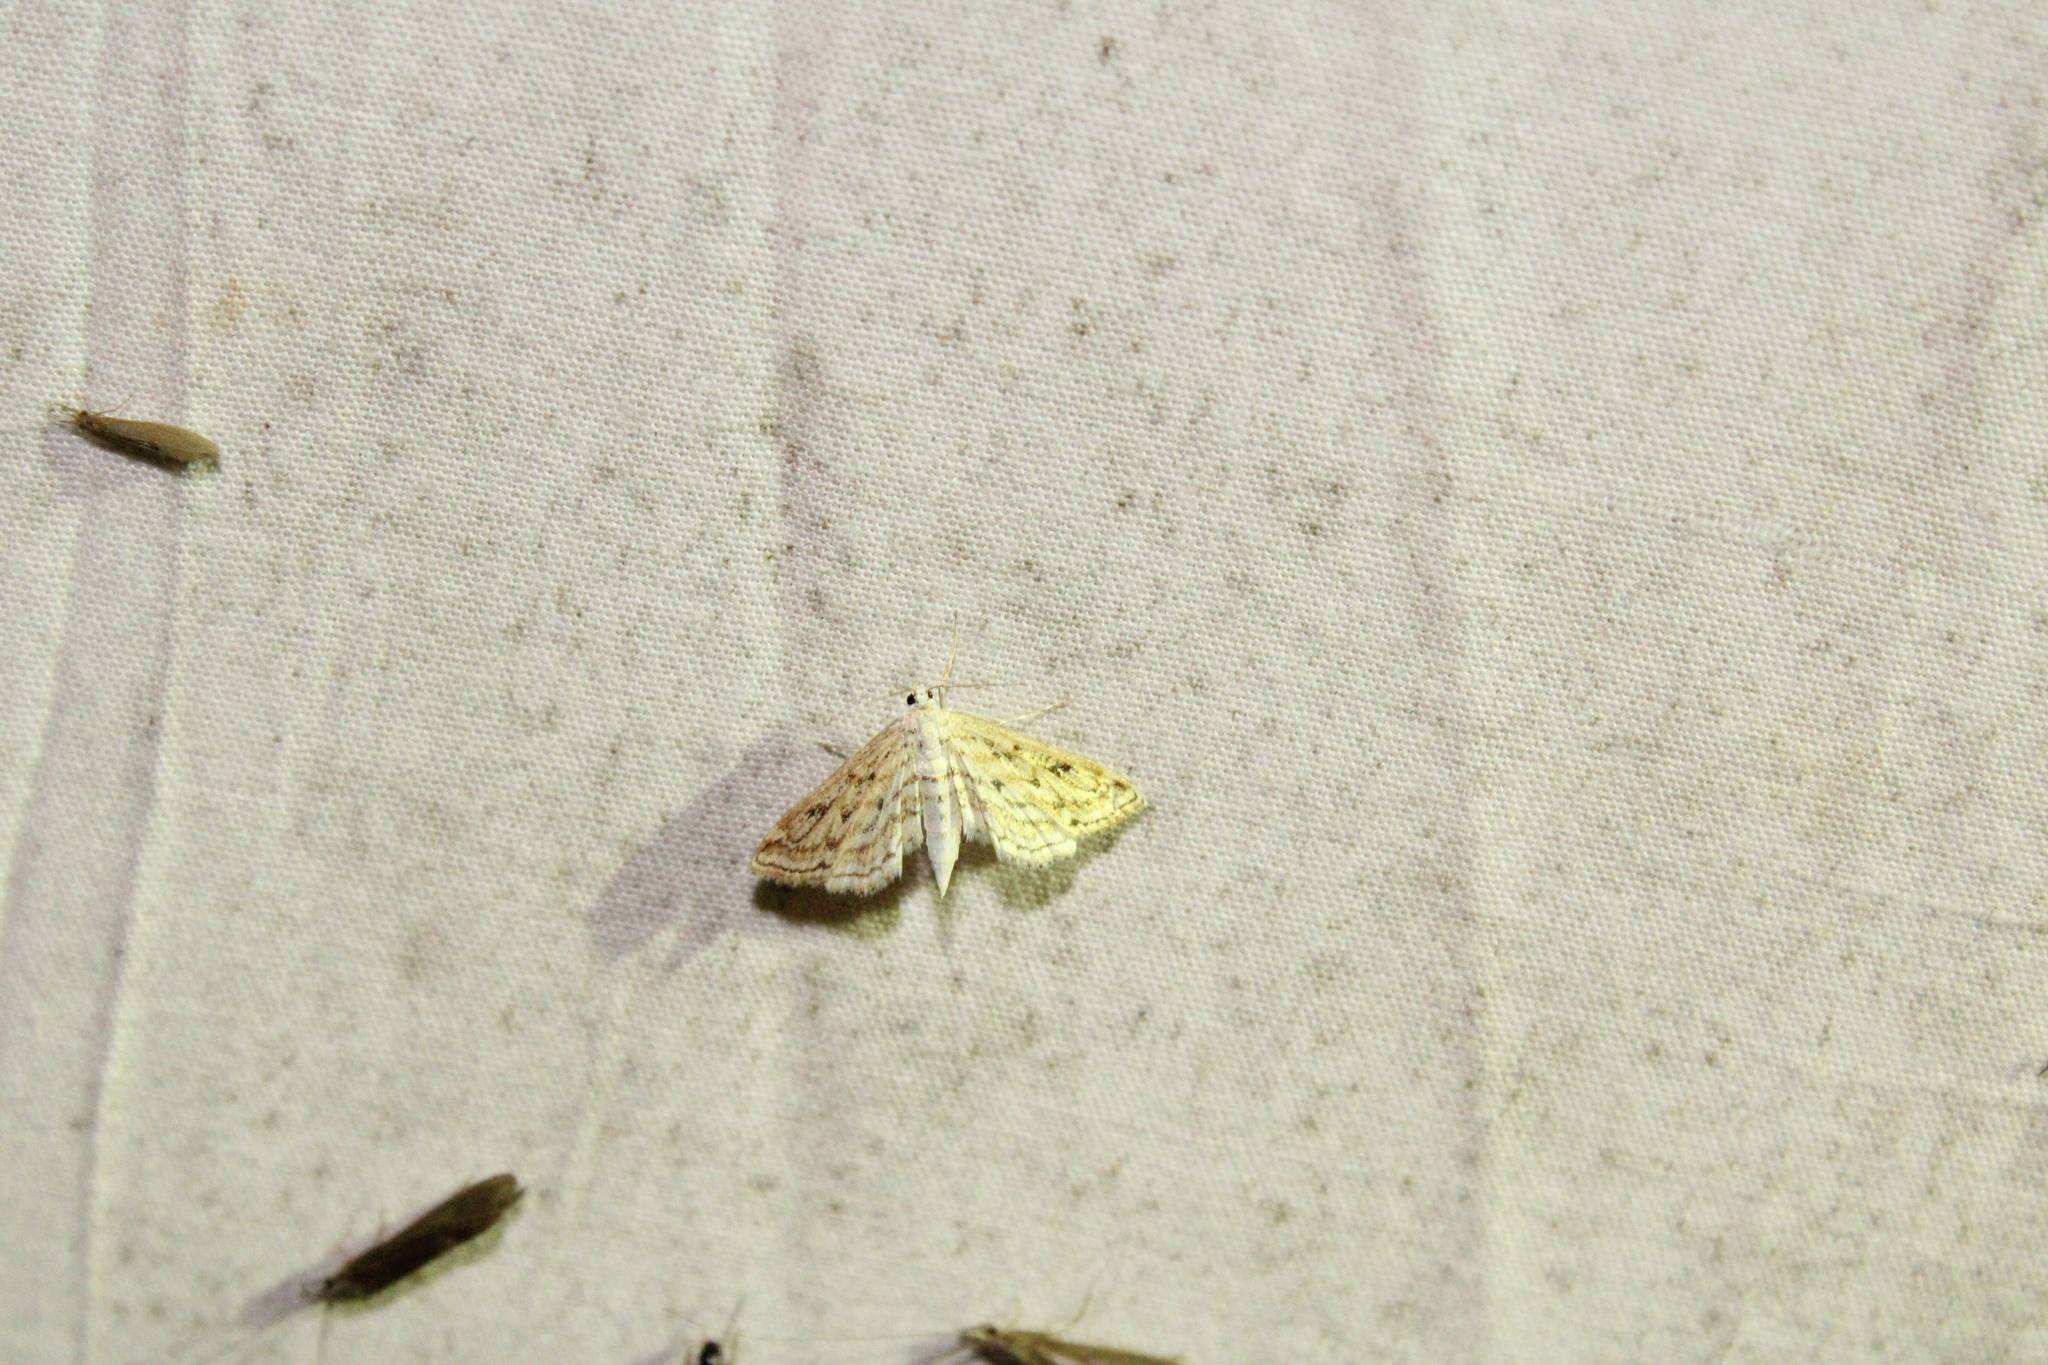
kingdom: Animalia
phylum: Arthropoda
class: Insecta
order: Lepidoptera
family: Crambidae
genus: Parapoynx
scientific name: Parapoynx allionealis
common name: Bladderwort casemaker
